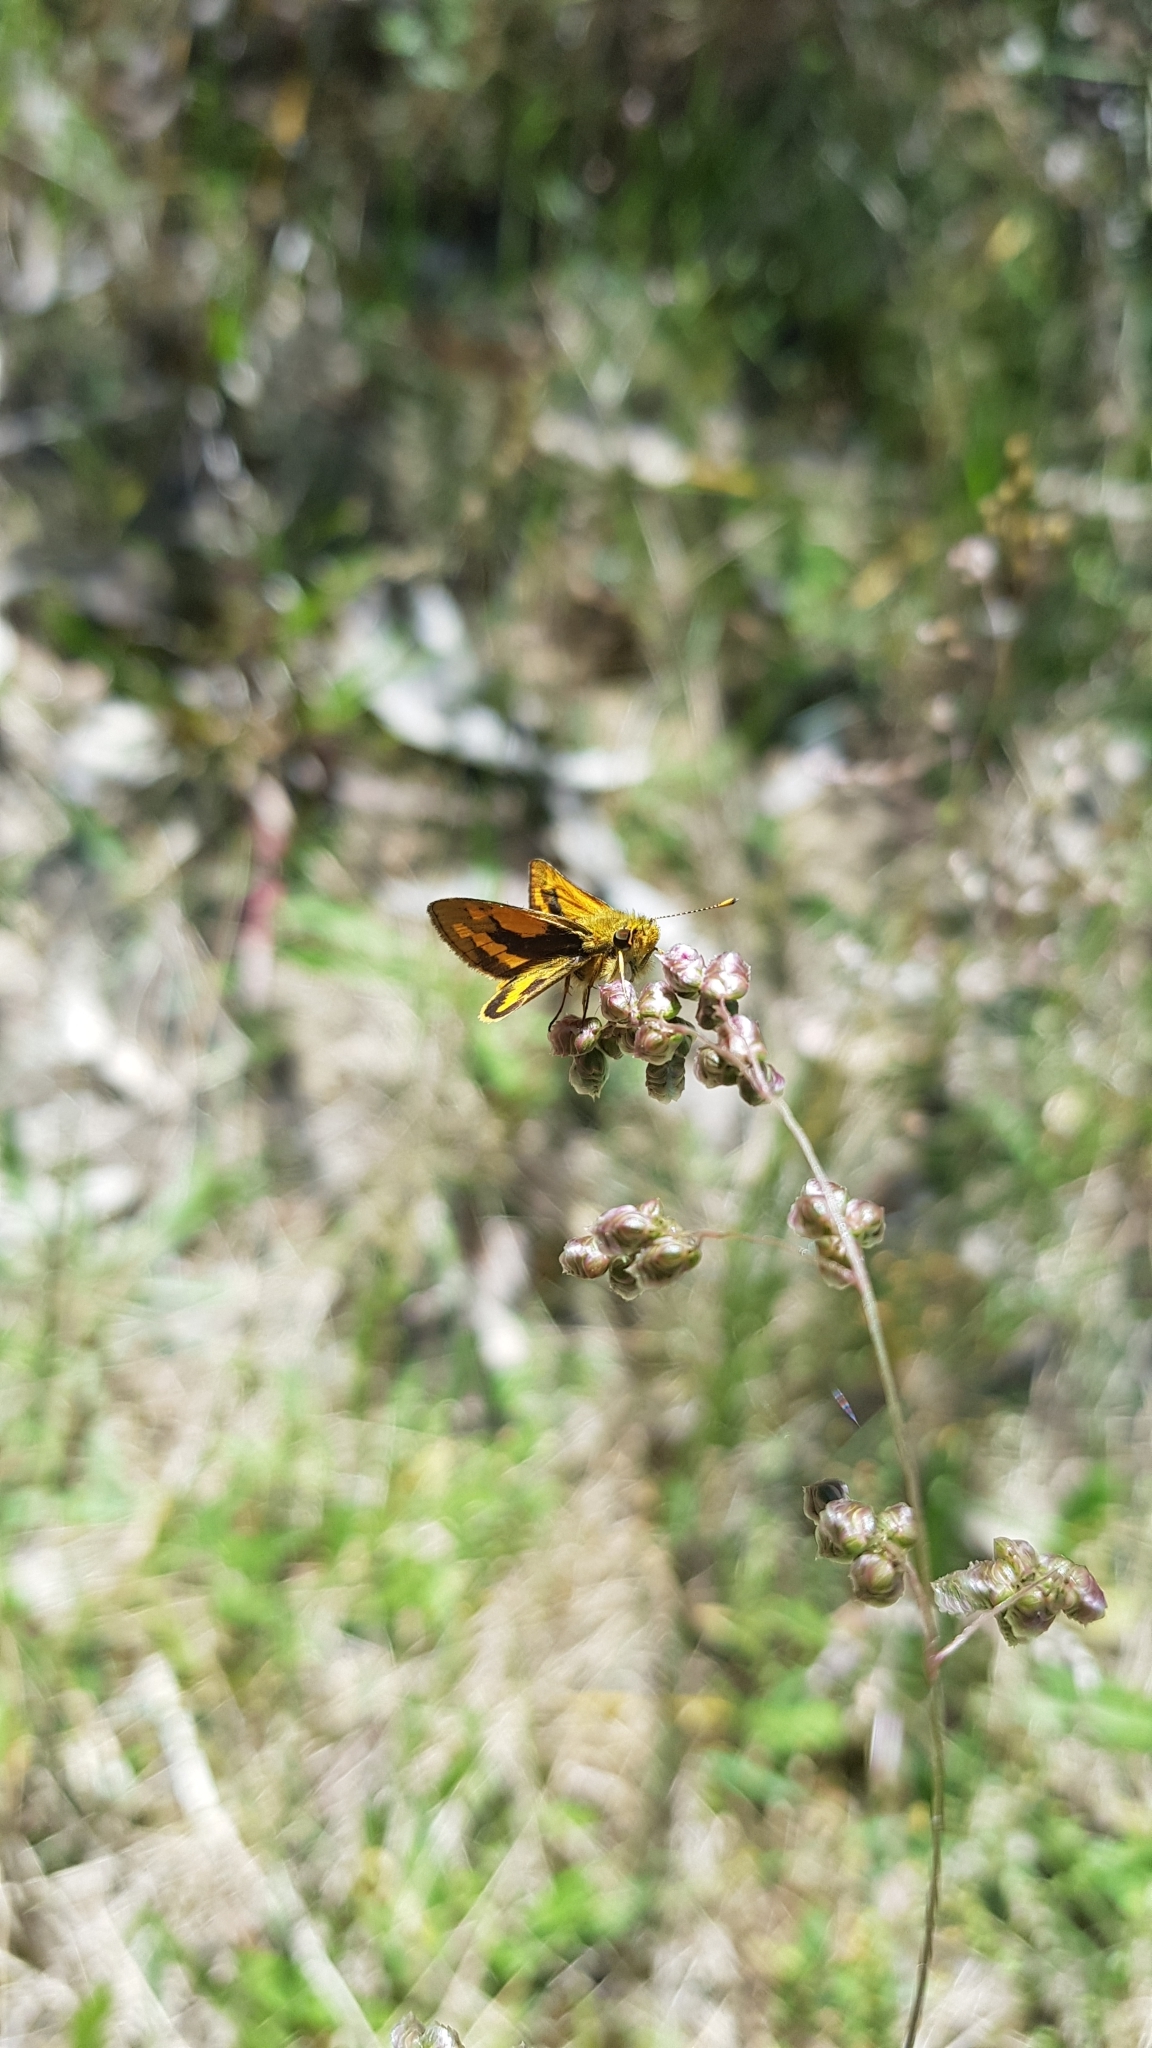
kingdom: Animalia
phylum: Arthropoda
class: Insecta
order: Lepidoptera
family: Hesperiidae
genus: Ocybadistes
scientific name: Ocybadistes walkeri
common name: Yellow-banded dart
